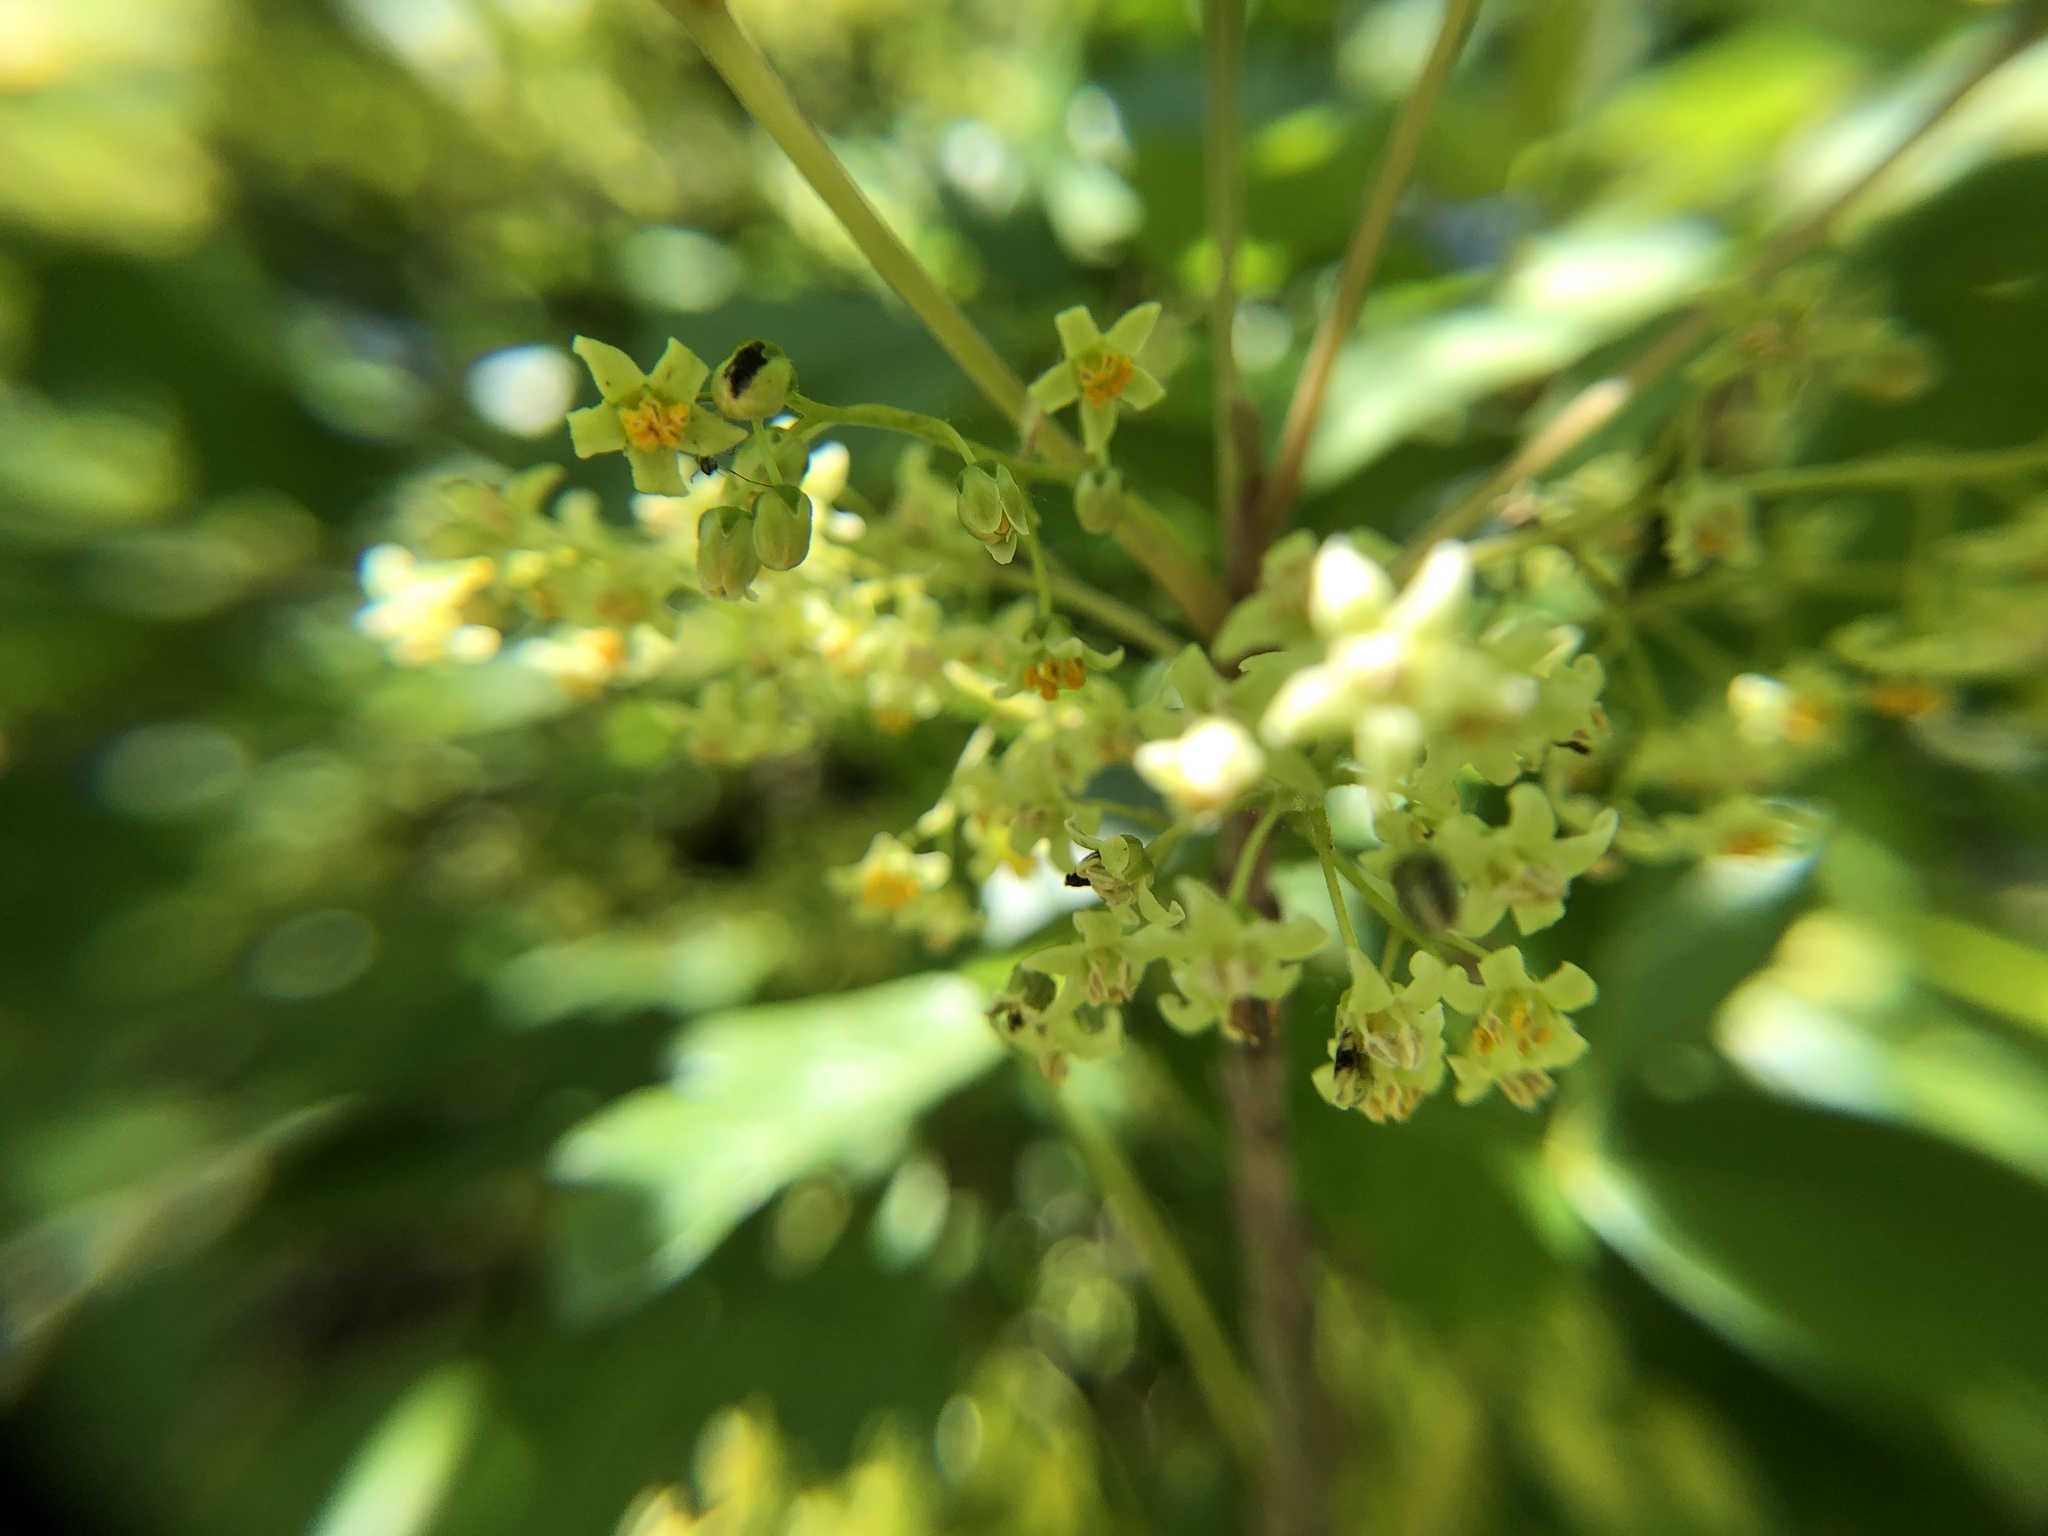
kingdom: Plantae
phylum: Tracheophyta
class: Magnoliopsida
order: Sapindales
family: Anacardiaceae
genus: Toxicodendron
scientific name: Toxicodendron diversilobum
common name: Pacific poison-oak
